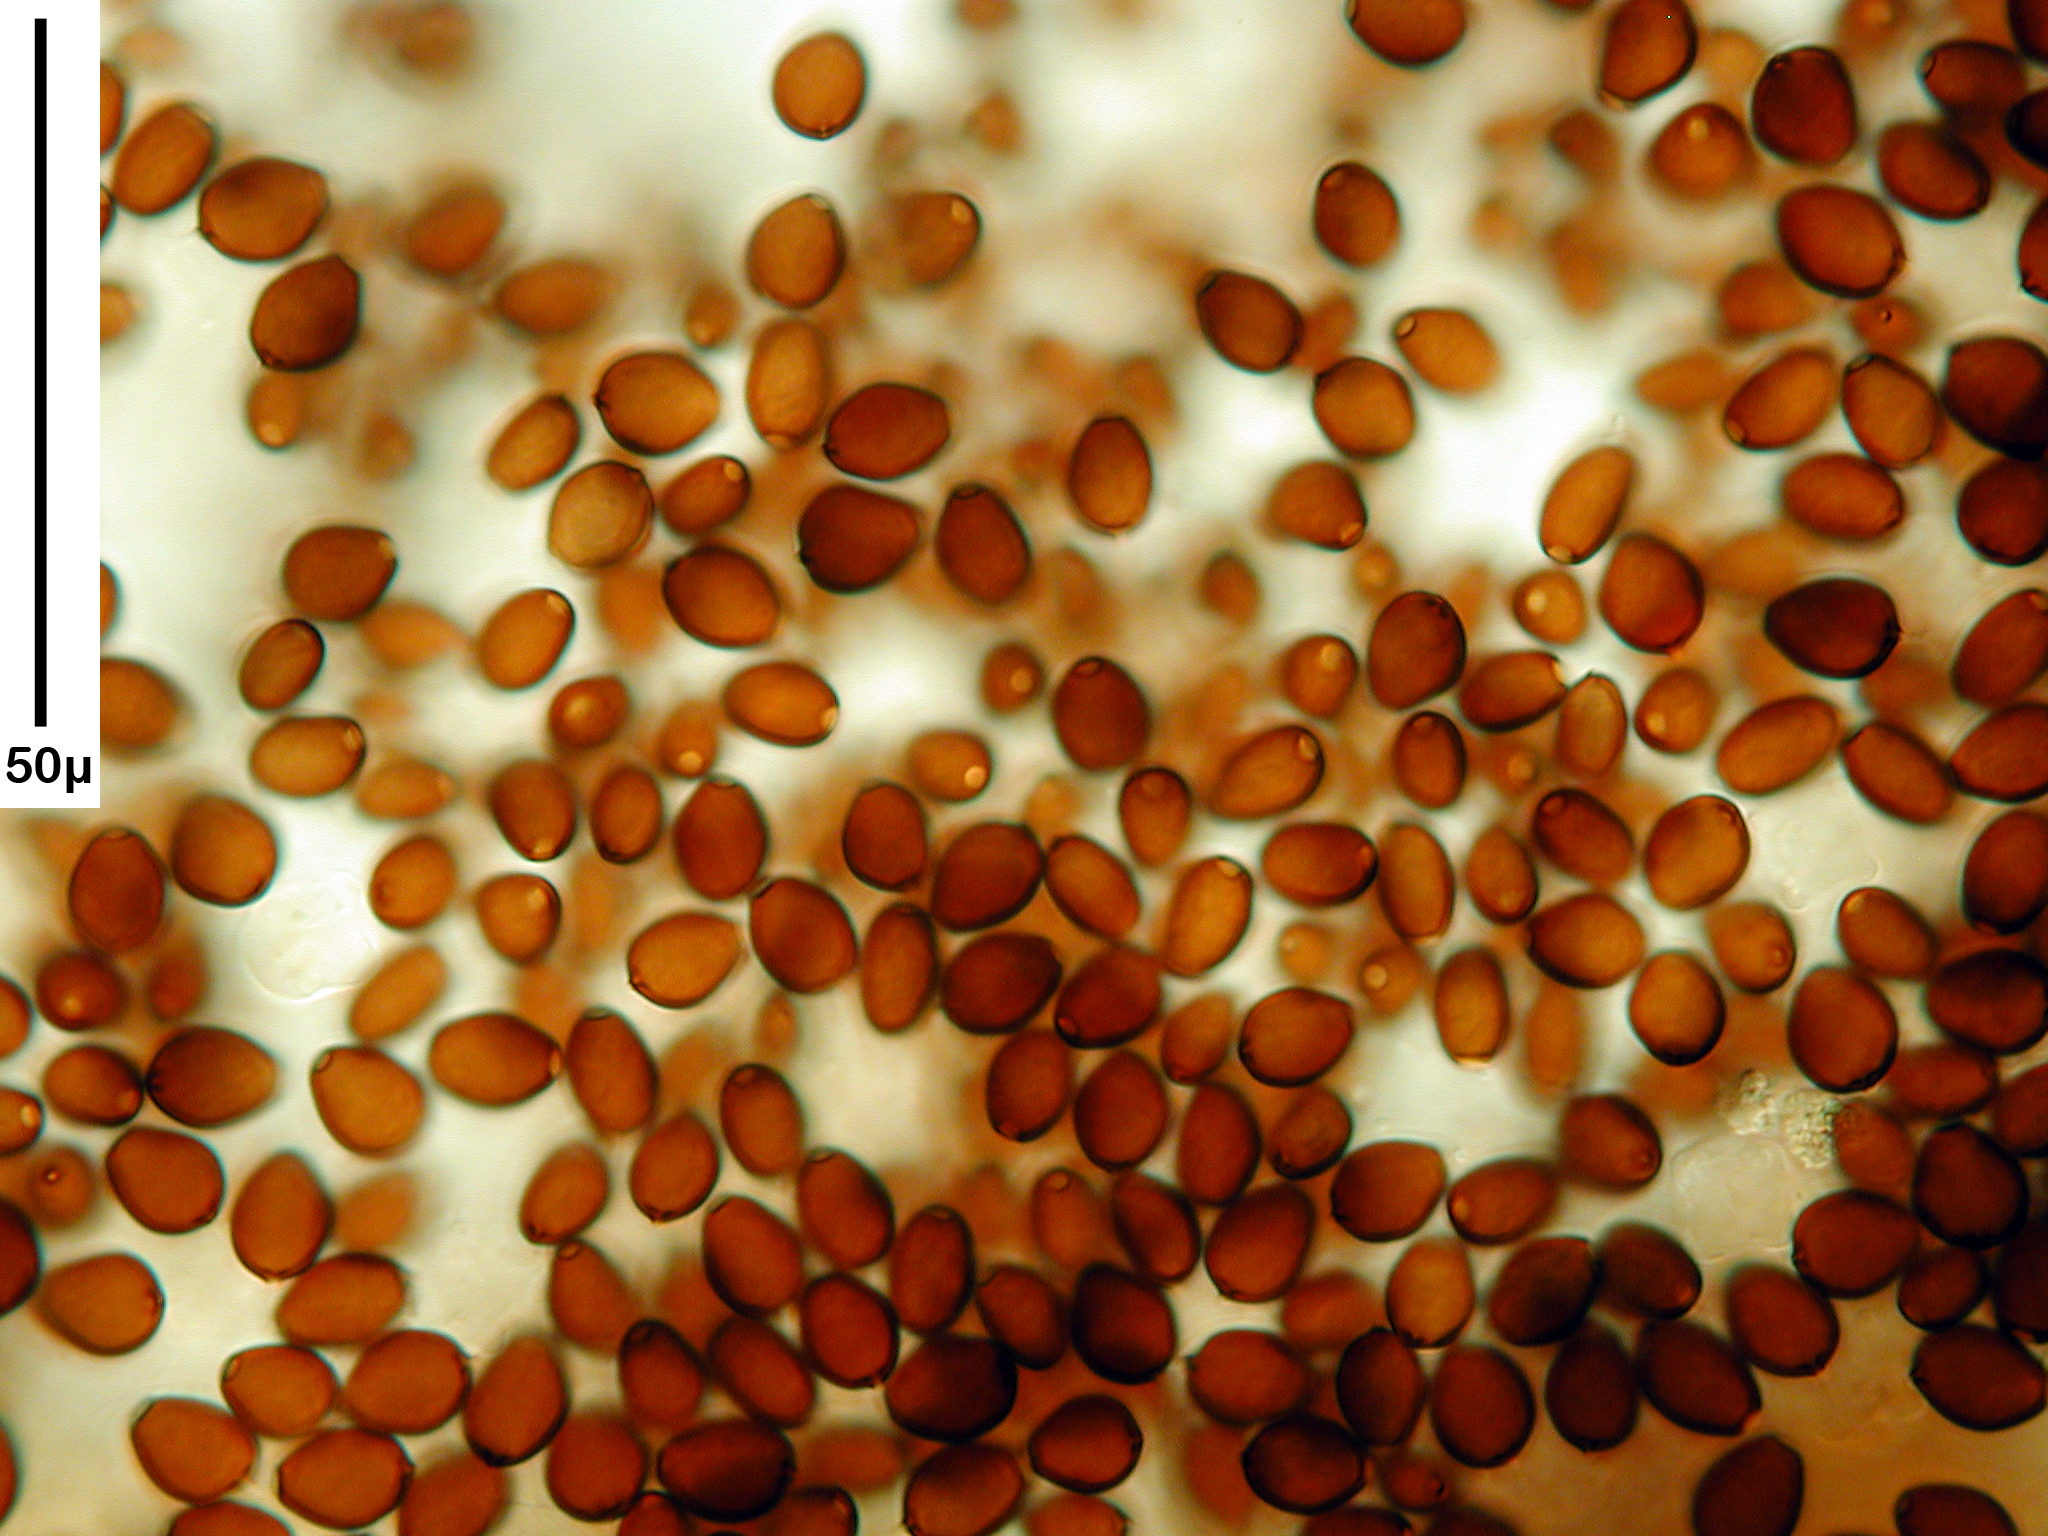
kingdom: Fungi
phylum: Basidiomycota
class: Agaricomycetes
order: Agaricales
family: Psathyrellaceae
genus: Coprinopsis
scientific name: Coprinopsis pseudofriesii
